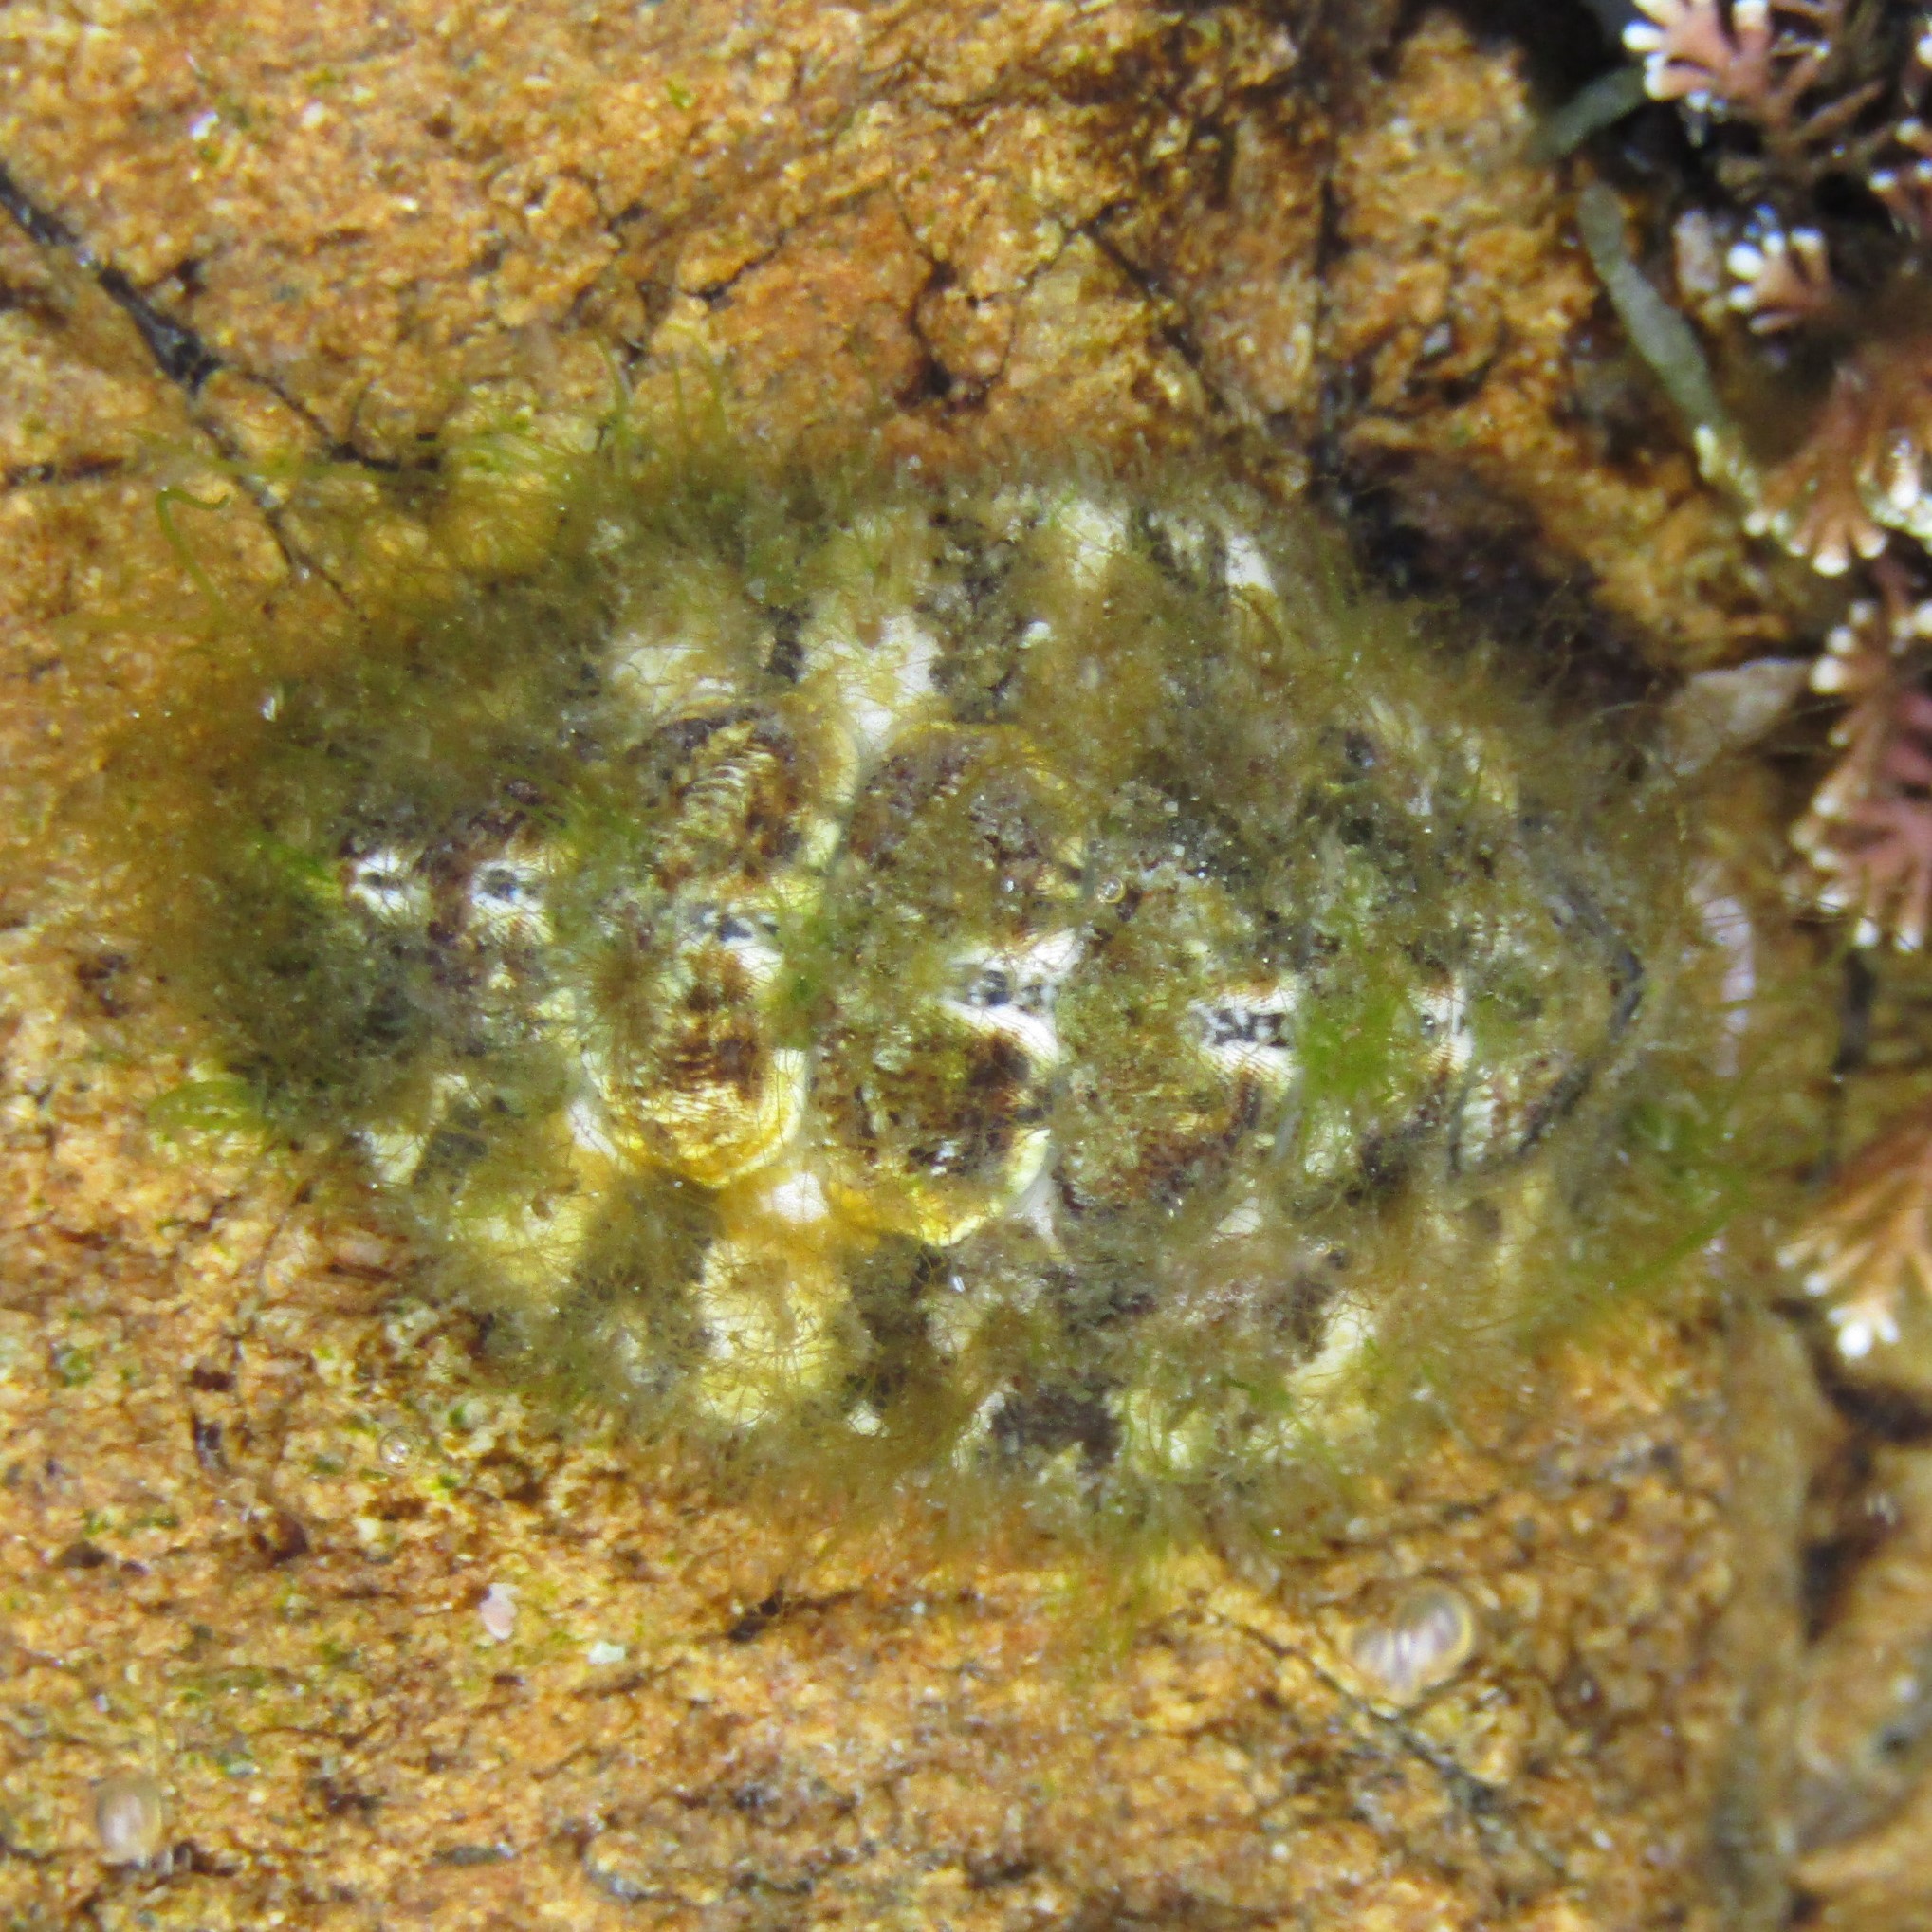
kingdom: Animalia
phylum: Mollusca
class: Polyplacophora
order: Chitonida
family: Mopaliidae
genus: Plaxiphora
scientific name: Plaxiphora caelata
